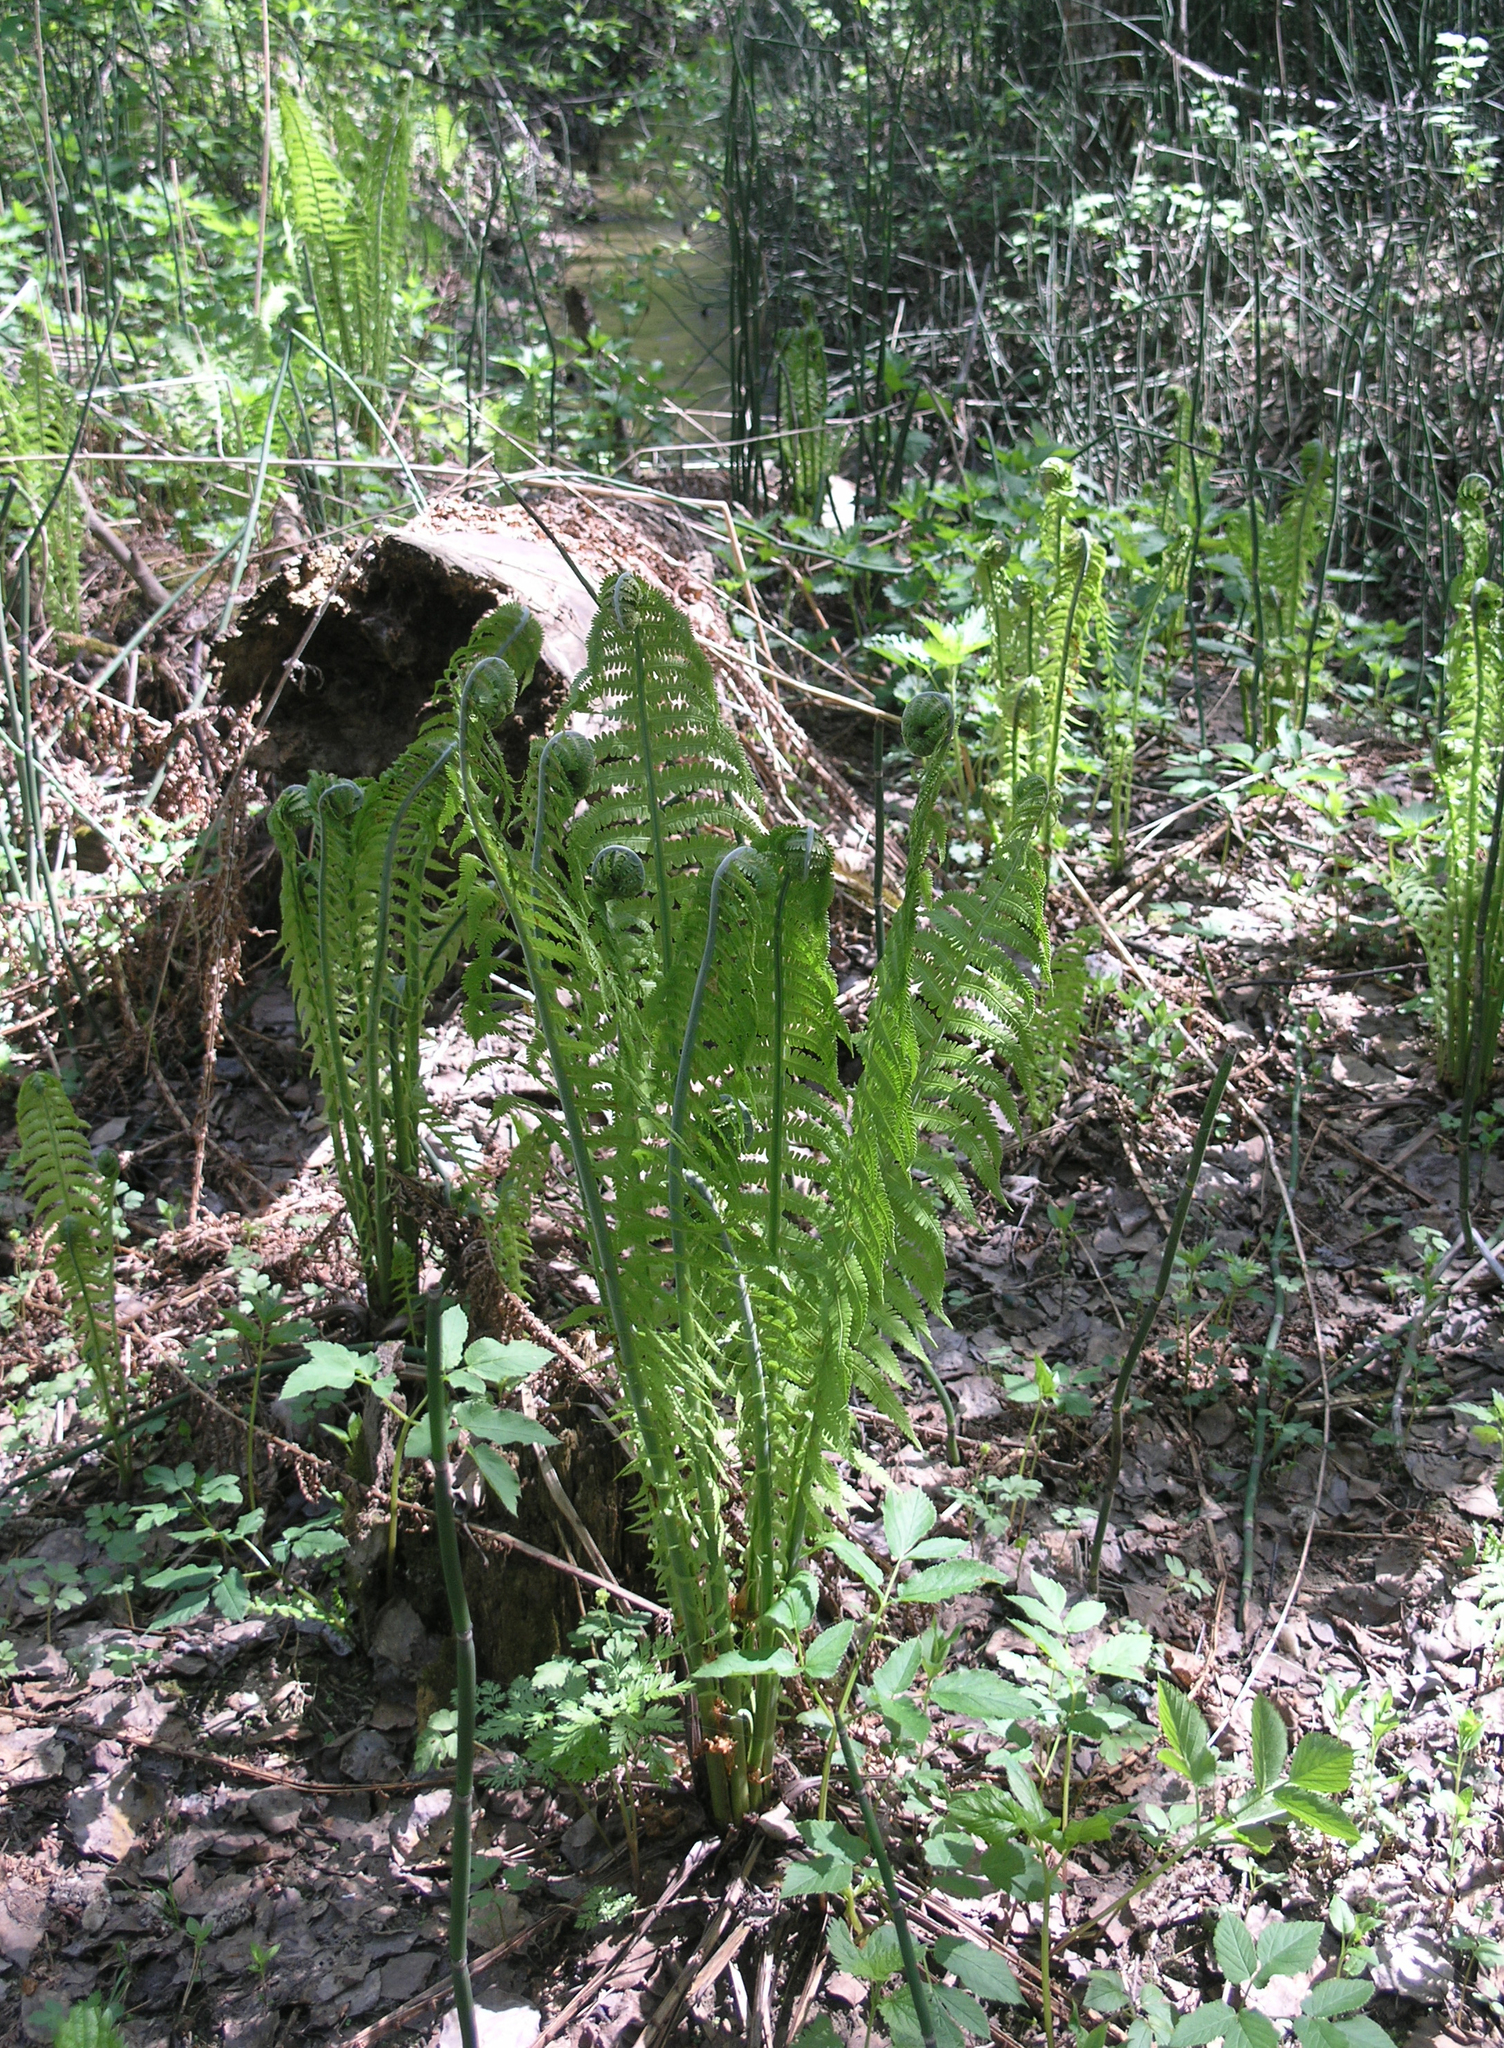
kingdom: Plantae
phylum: Tracheophyta
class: Polypodiopsida
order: Polypodiales
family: Onocleaceae
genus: Matteuccia
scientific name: Matteuccia struthiopteris
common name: Ostrich fern
